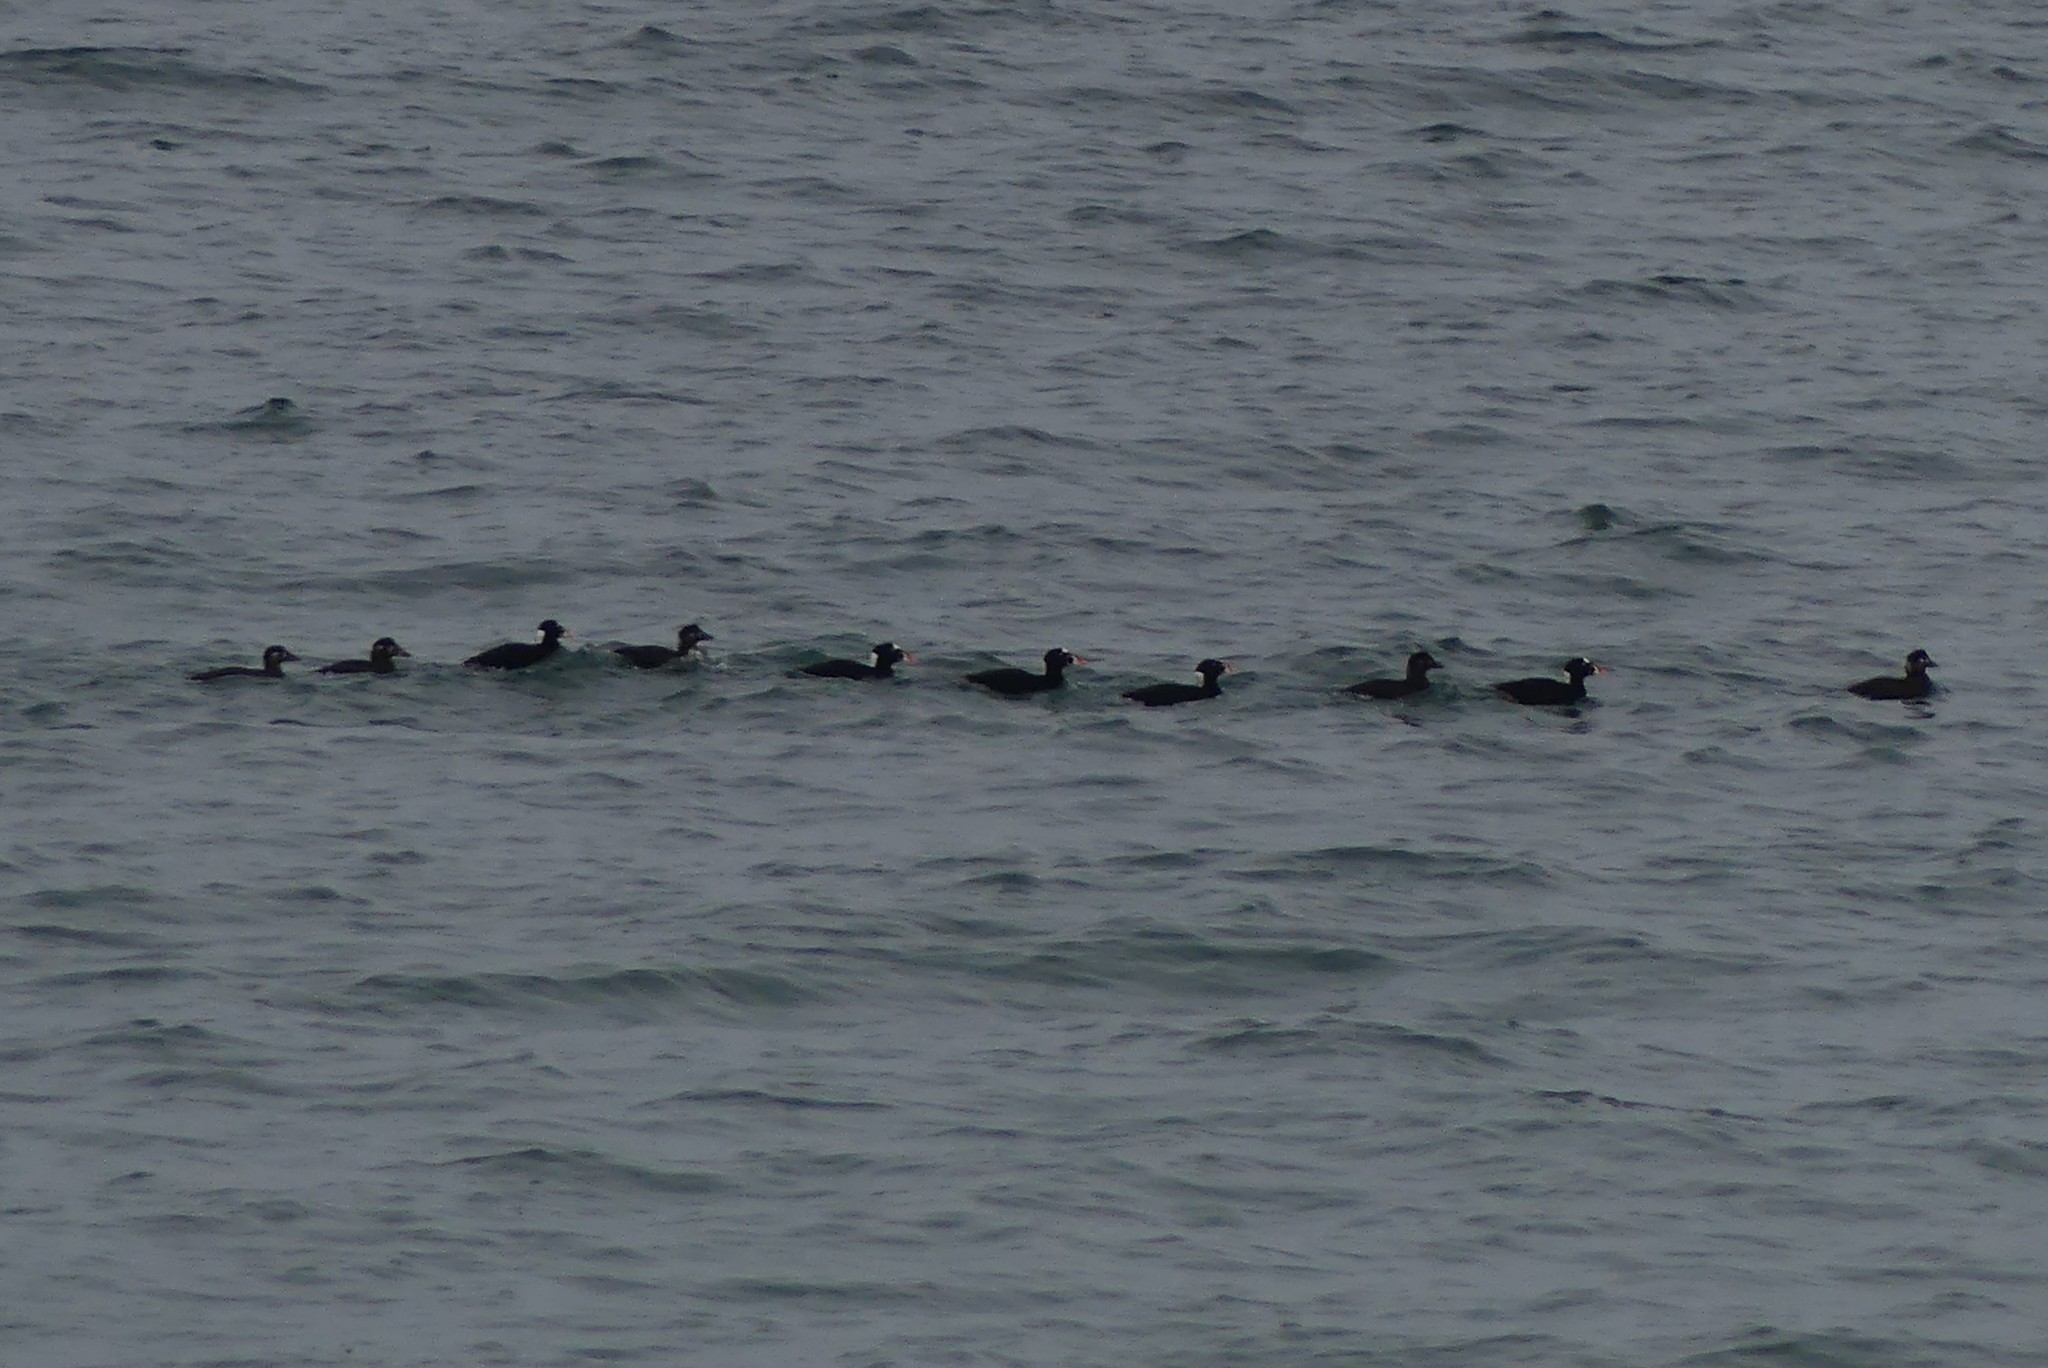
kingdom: Animalia
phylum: Chordata
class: Aves
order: Anseriformes
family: Anatidae
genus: Melanitta
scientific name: Melanitta perspicillata
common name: Surf scoter
